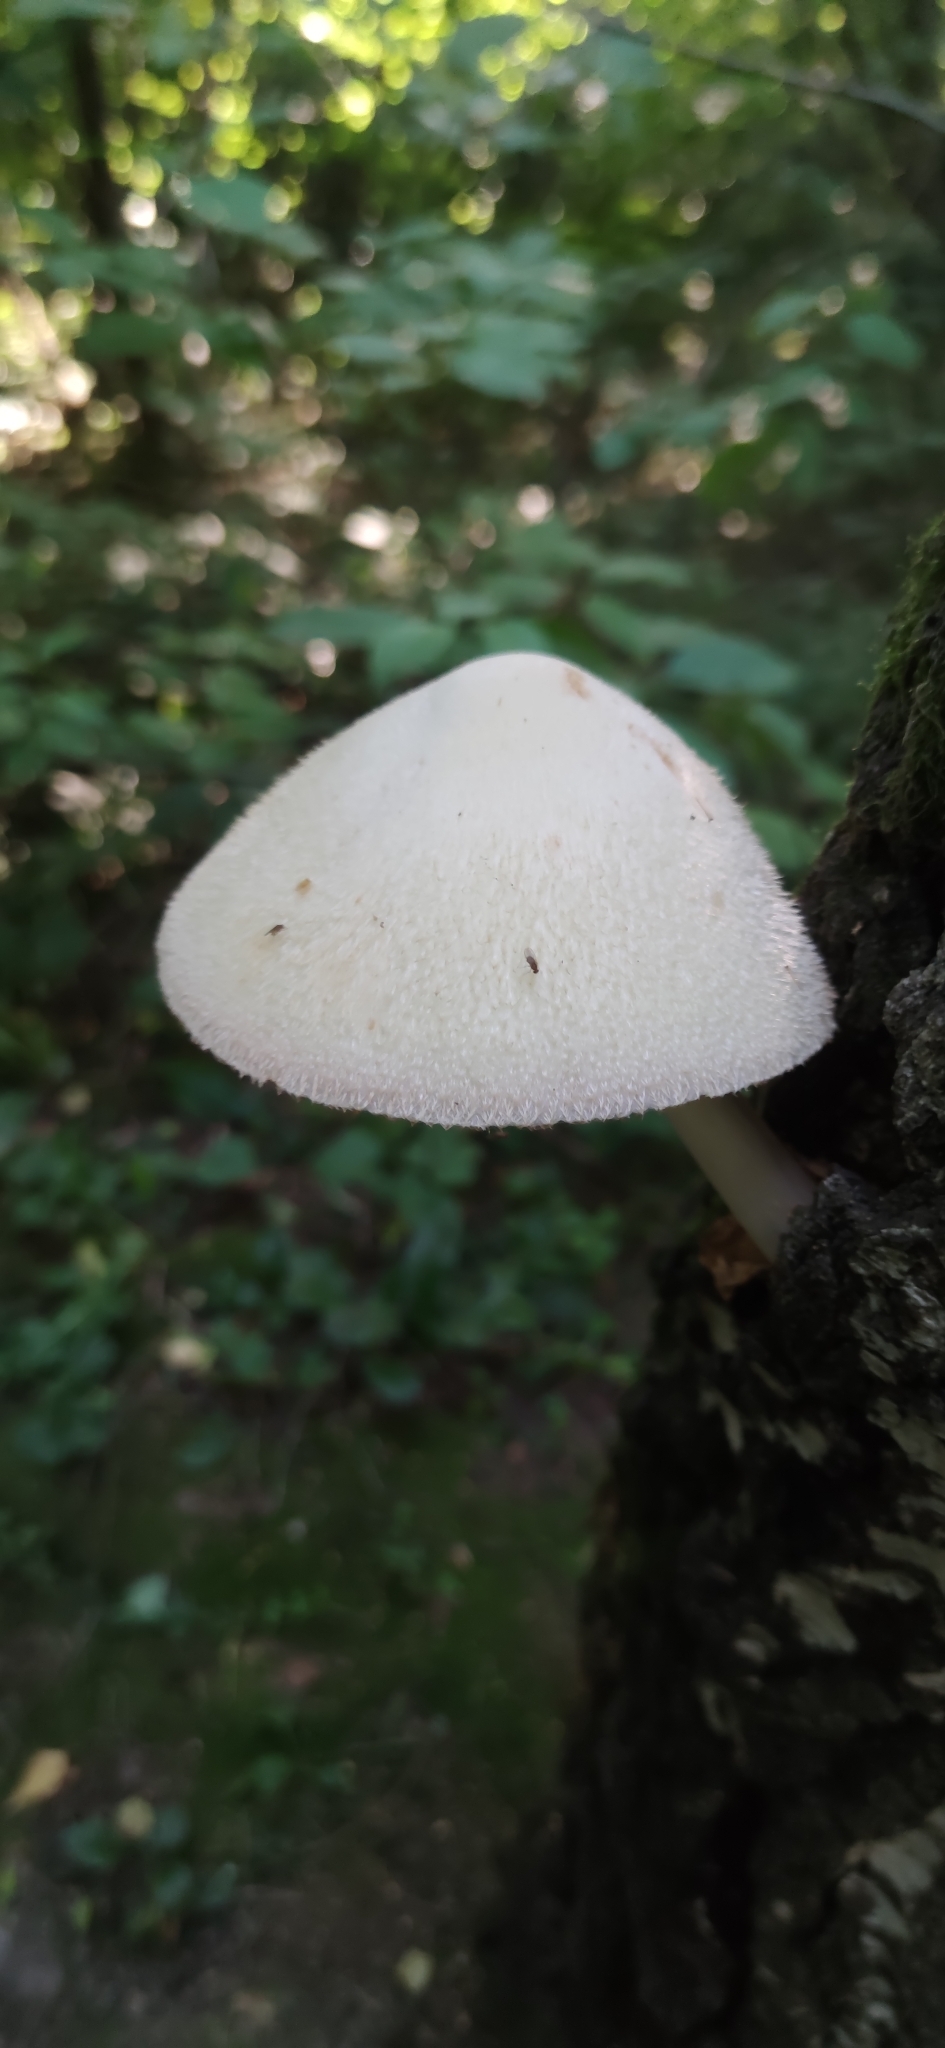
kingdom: Fungi
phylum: Basidiomycota
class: Agaricomycetes
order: Agaricales
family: Pluteaceae
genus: Volvariella
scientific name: Volvariella bombycina
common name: Silky rosegill
